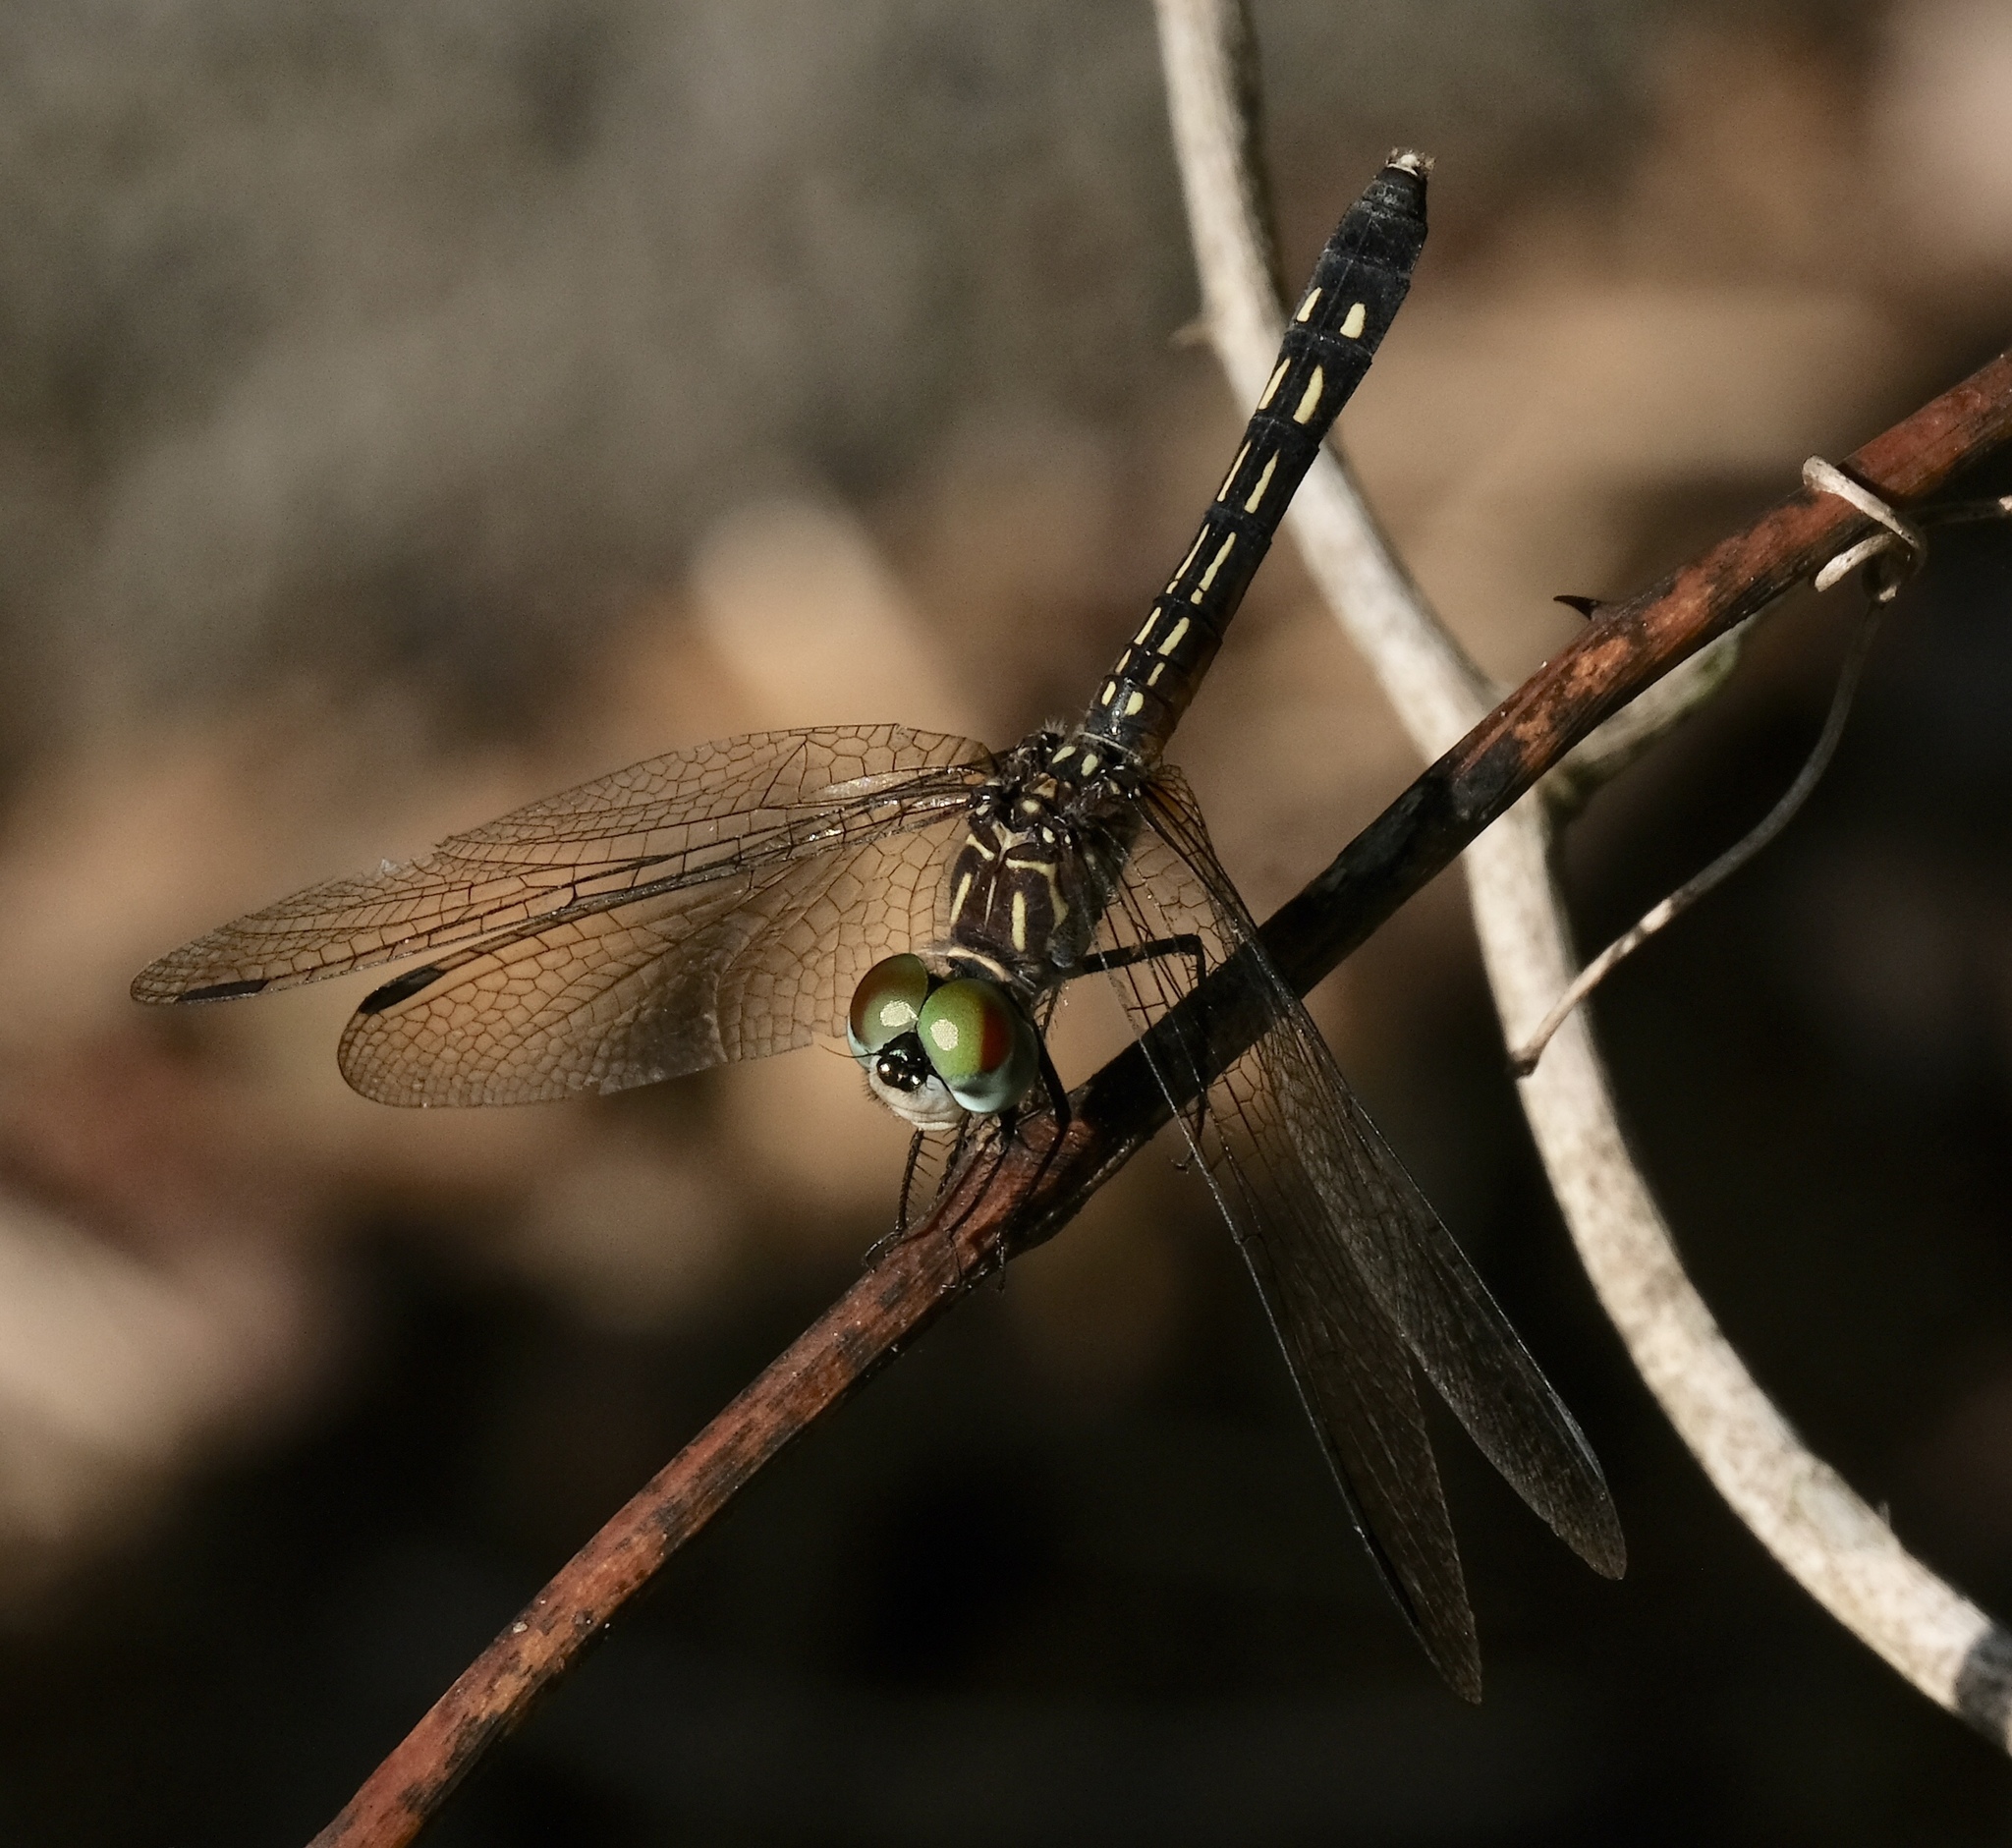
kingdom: Animalia
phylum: Arthropoda
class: Insecta
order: Odonata
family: Libellulidae
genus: Pachydiplax
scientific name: Pachydiplax longipennis
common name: Blue dasher
